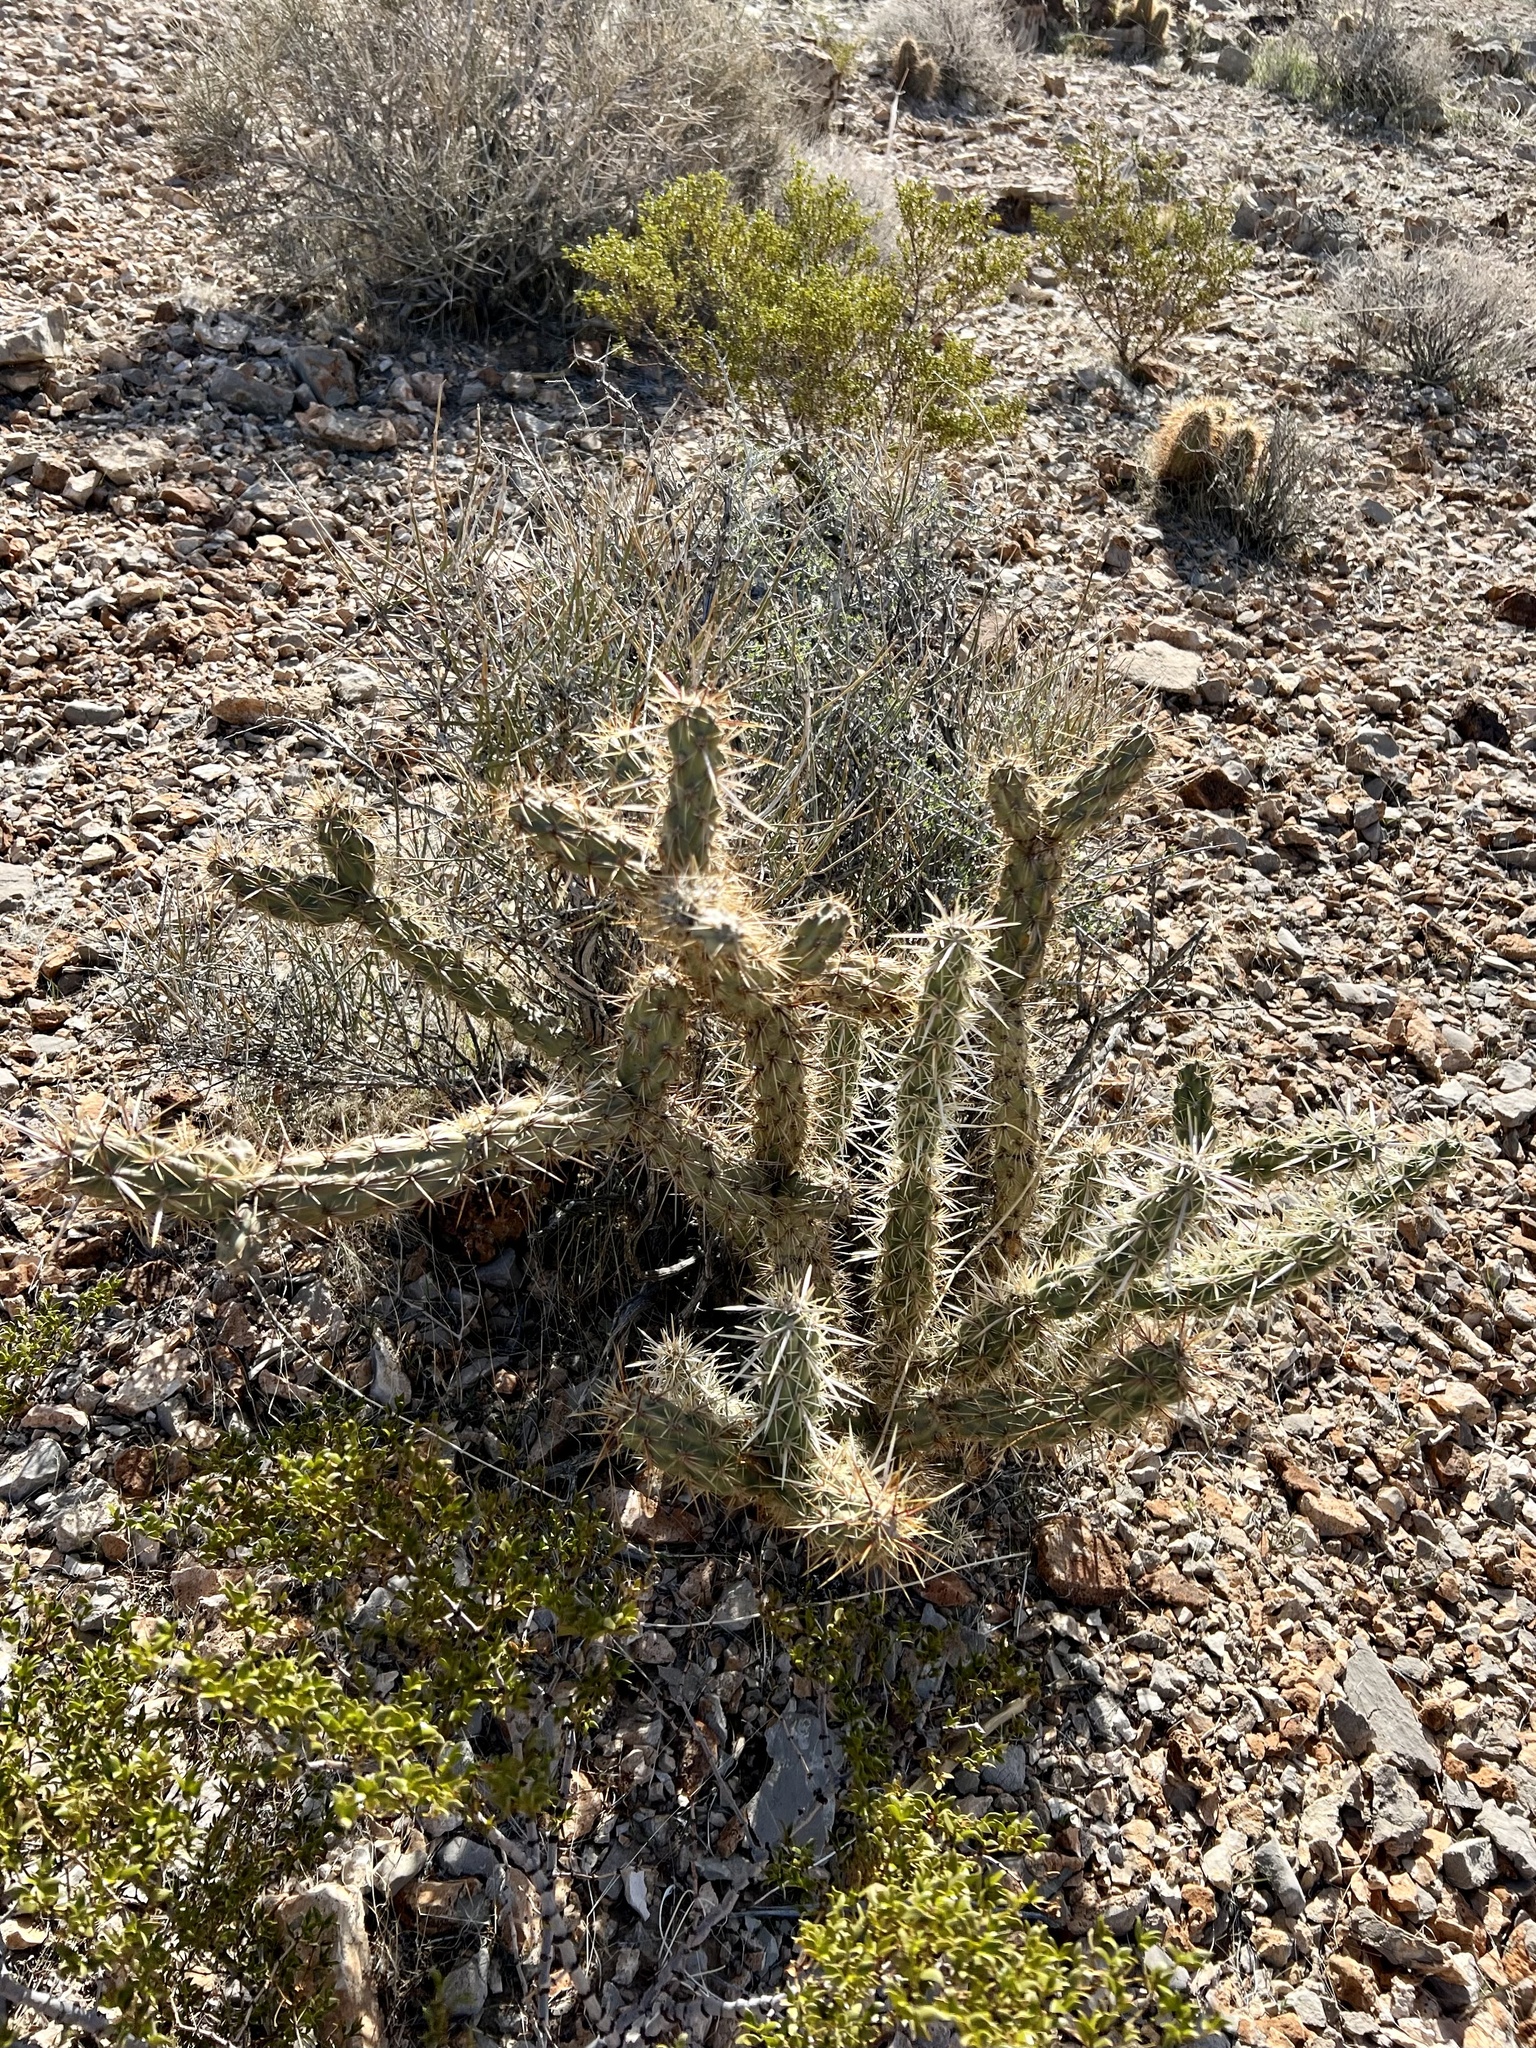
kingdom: Plantae
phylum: Tracheophyta
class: Magnoliopsida
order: Caryophyllales
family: Cactaceae
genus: Cylindropuntia
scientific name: Cylindropuntia acanthocarpa
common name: Buckhorn cholla
